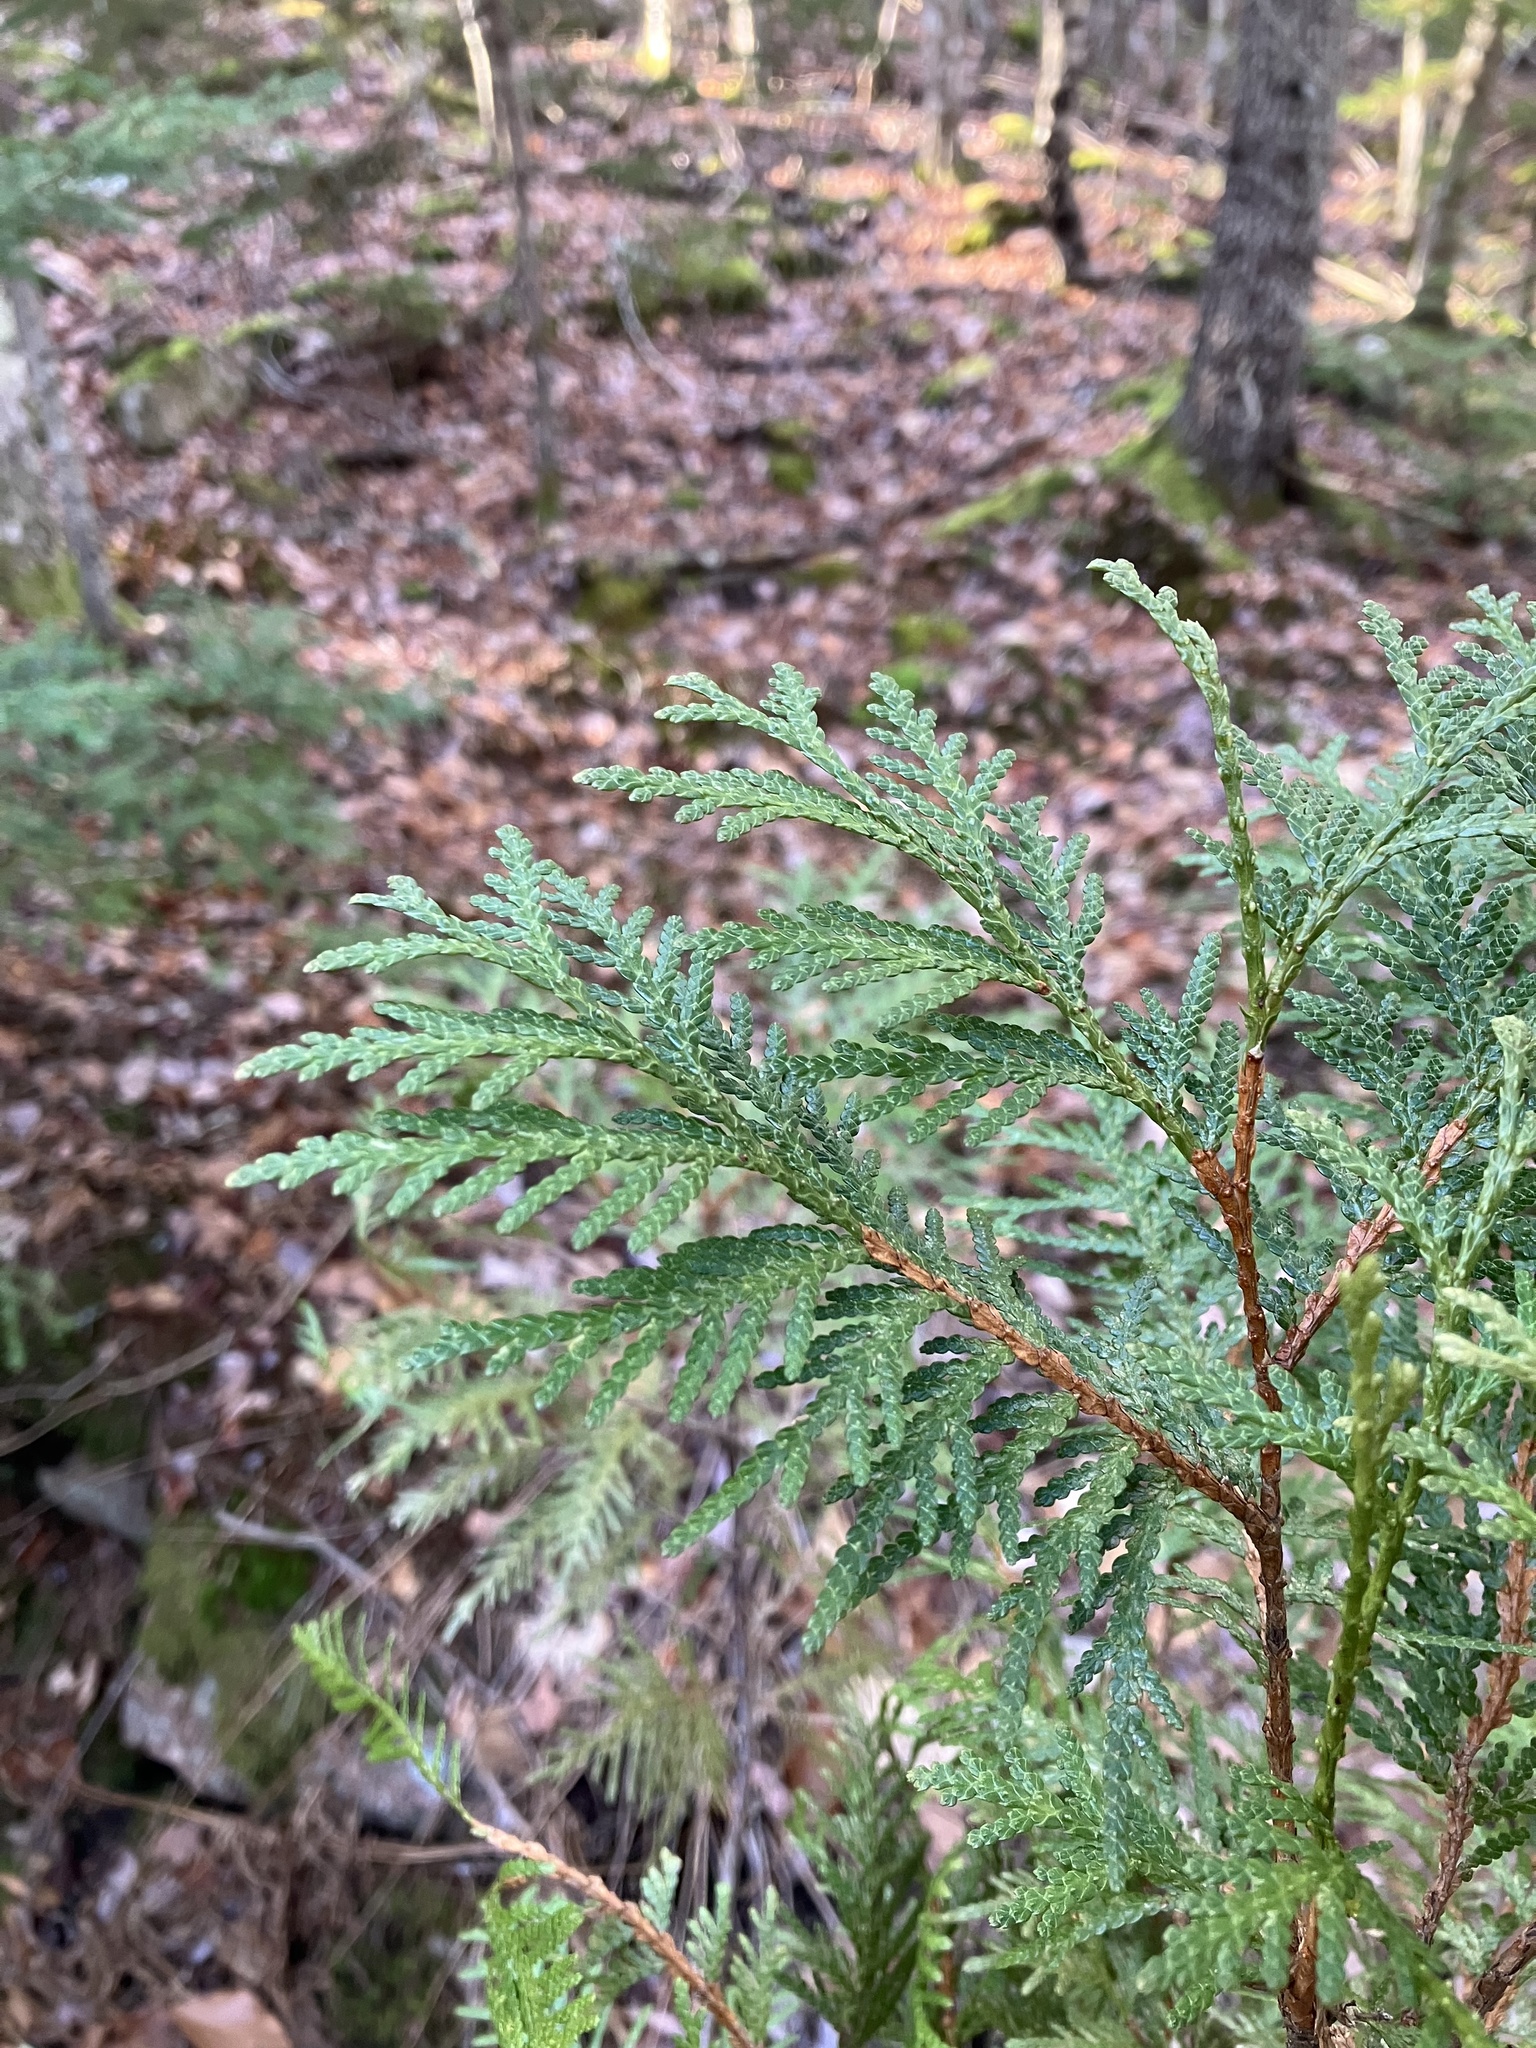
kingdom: Plantae
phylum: Tracheophyta
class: Pinopsida
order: Pinales
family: Cupressaceae
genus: Thuja
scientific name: Thuja occidentalis
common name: Northern white-cedar
